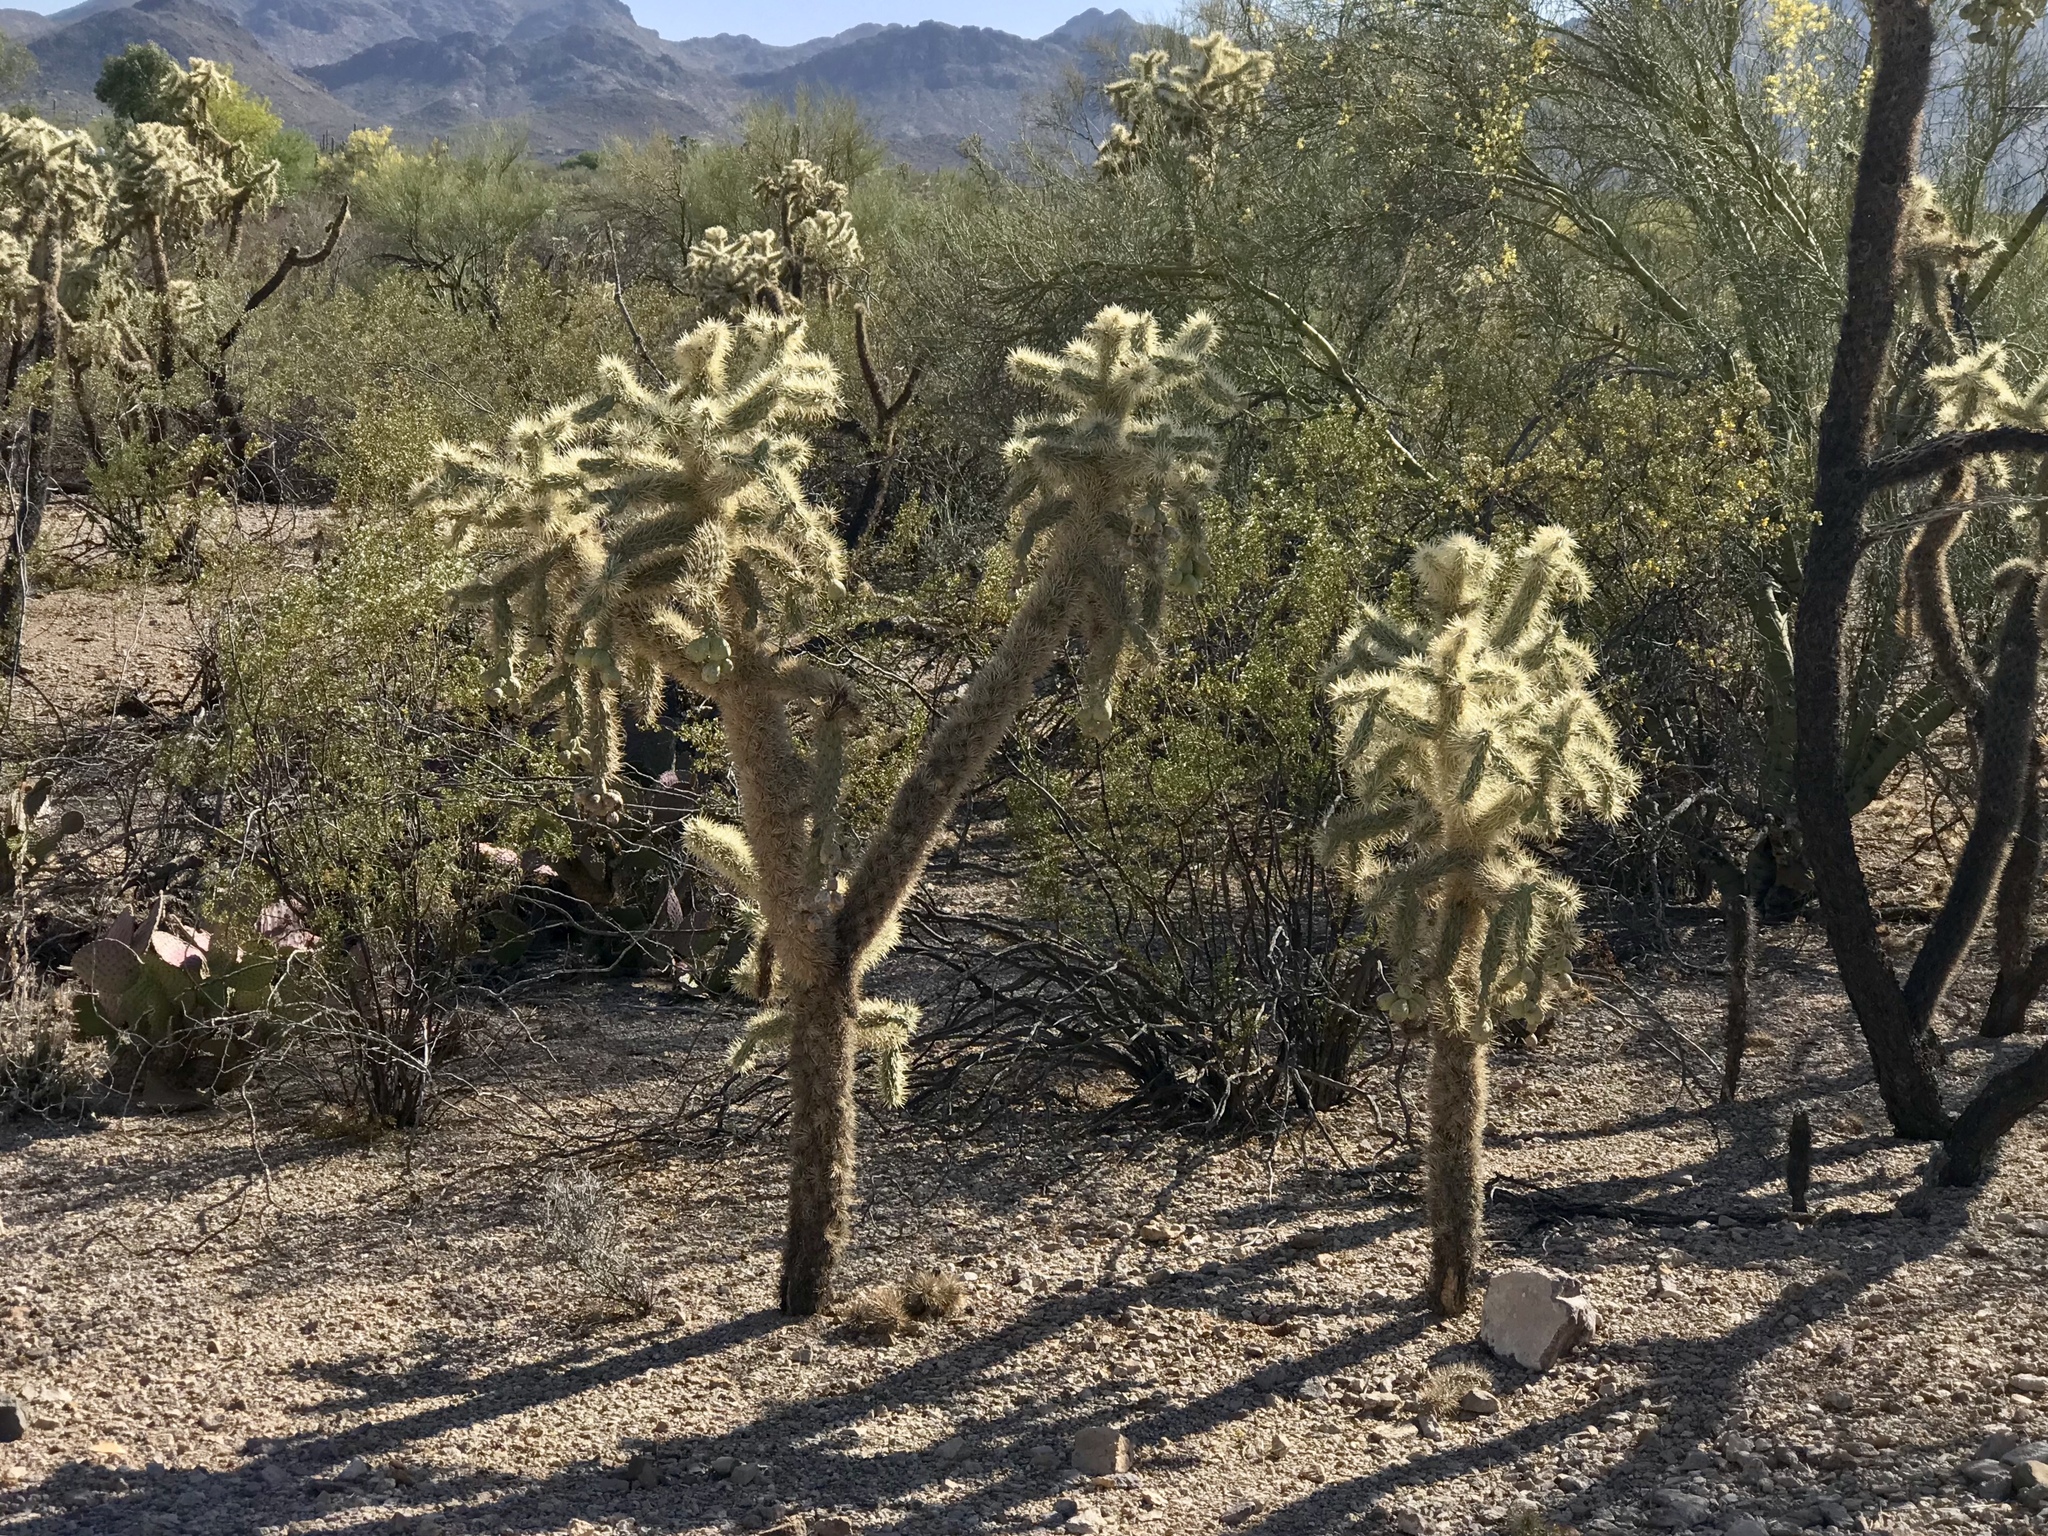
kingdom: Plantae
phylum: Tracheophyta
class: Magnoliopsida
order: Caryophyllales
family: Cactaceae
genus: Cylindropuntia
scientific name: Cylindropuntia fulgida
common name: Jumping cholla
